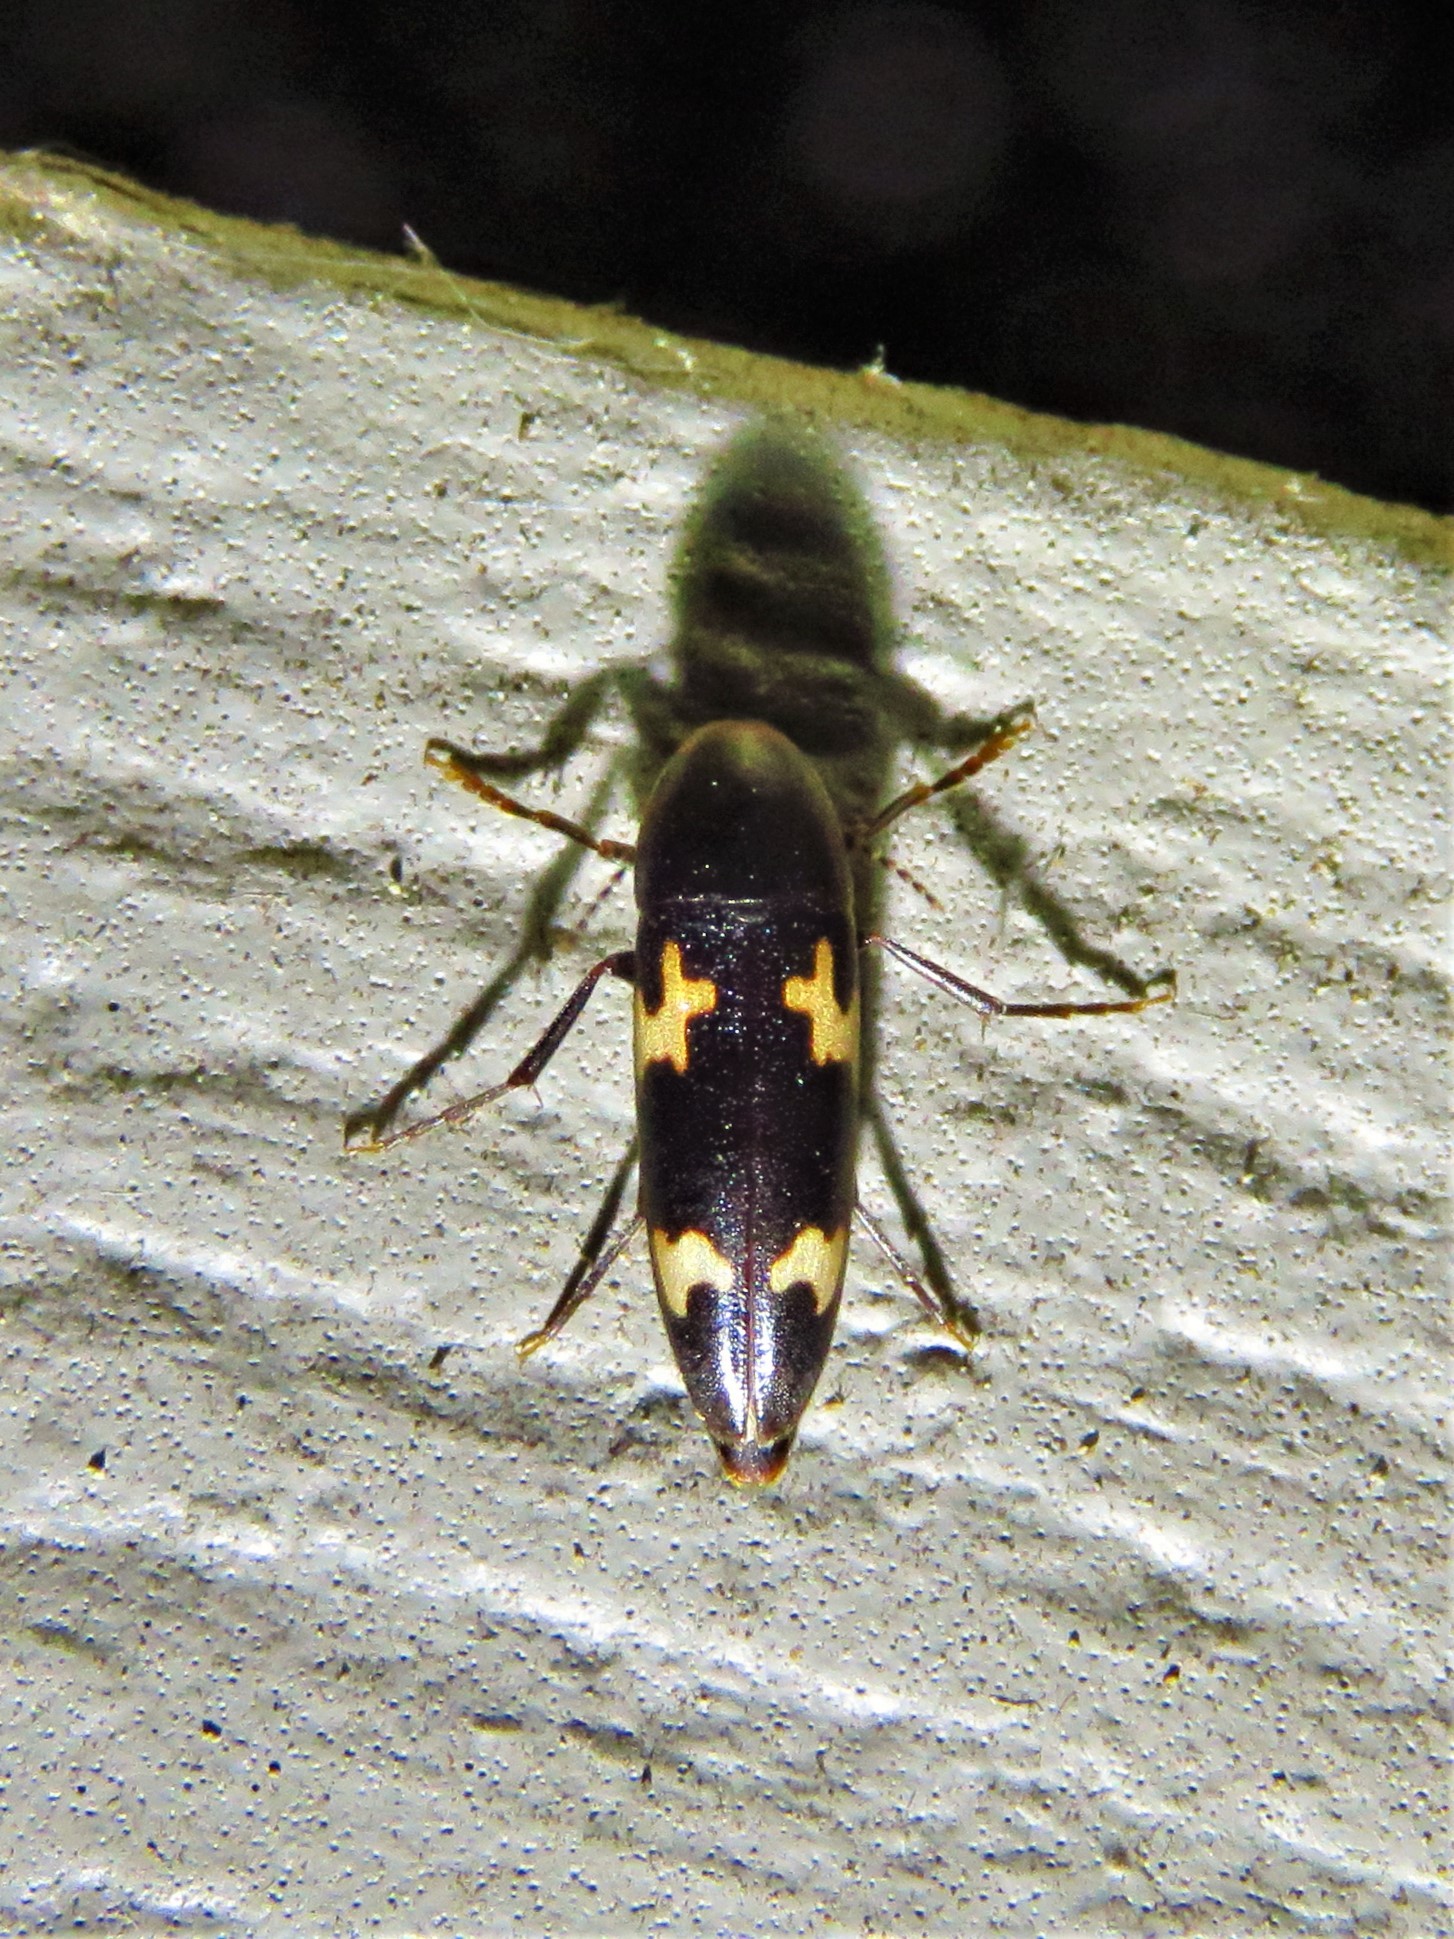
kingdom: Animalia
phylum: Arthropoda
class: Insecta
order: Coleoptera
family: Melandryidae
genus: Dircaea
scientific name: Dircaea liturata
